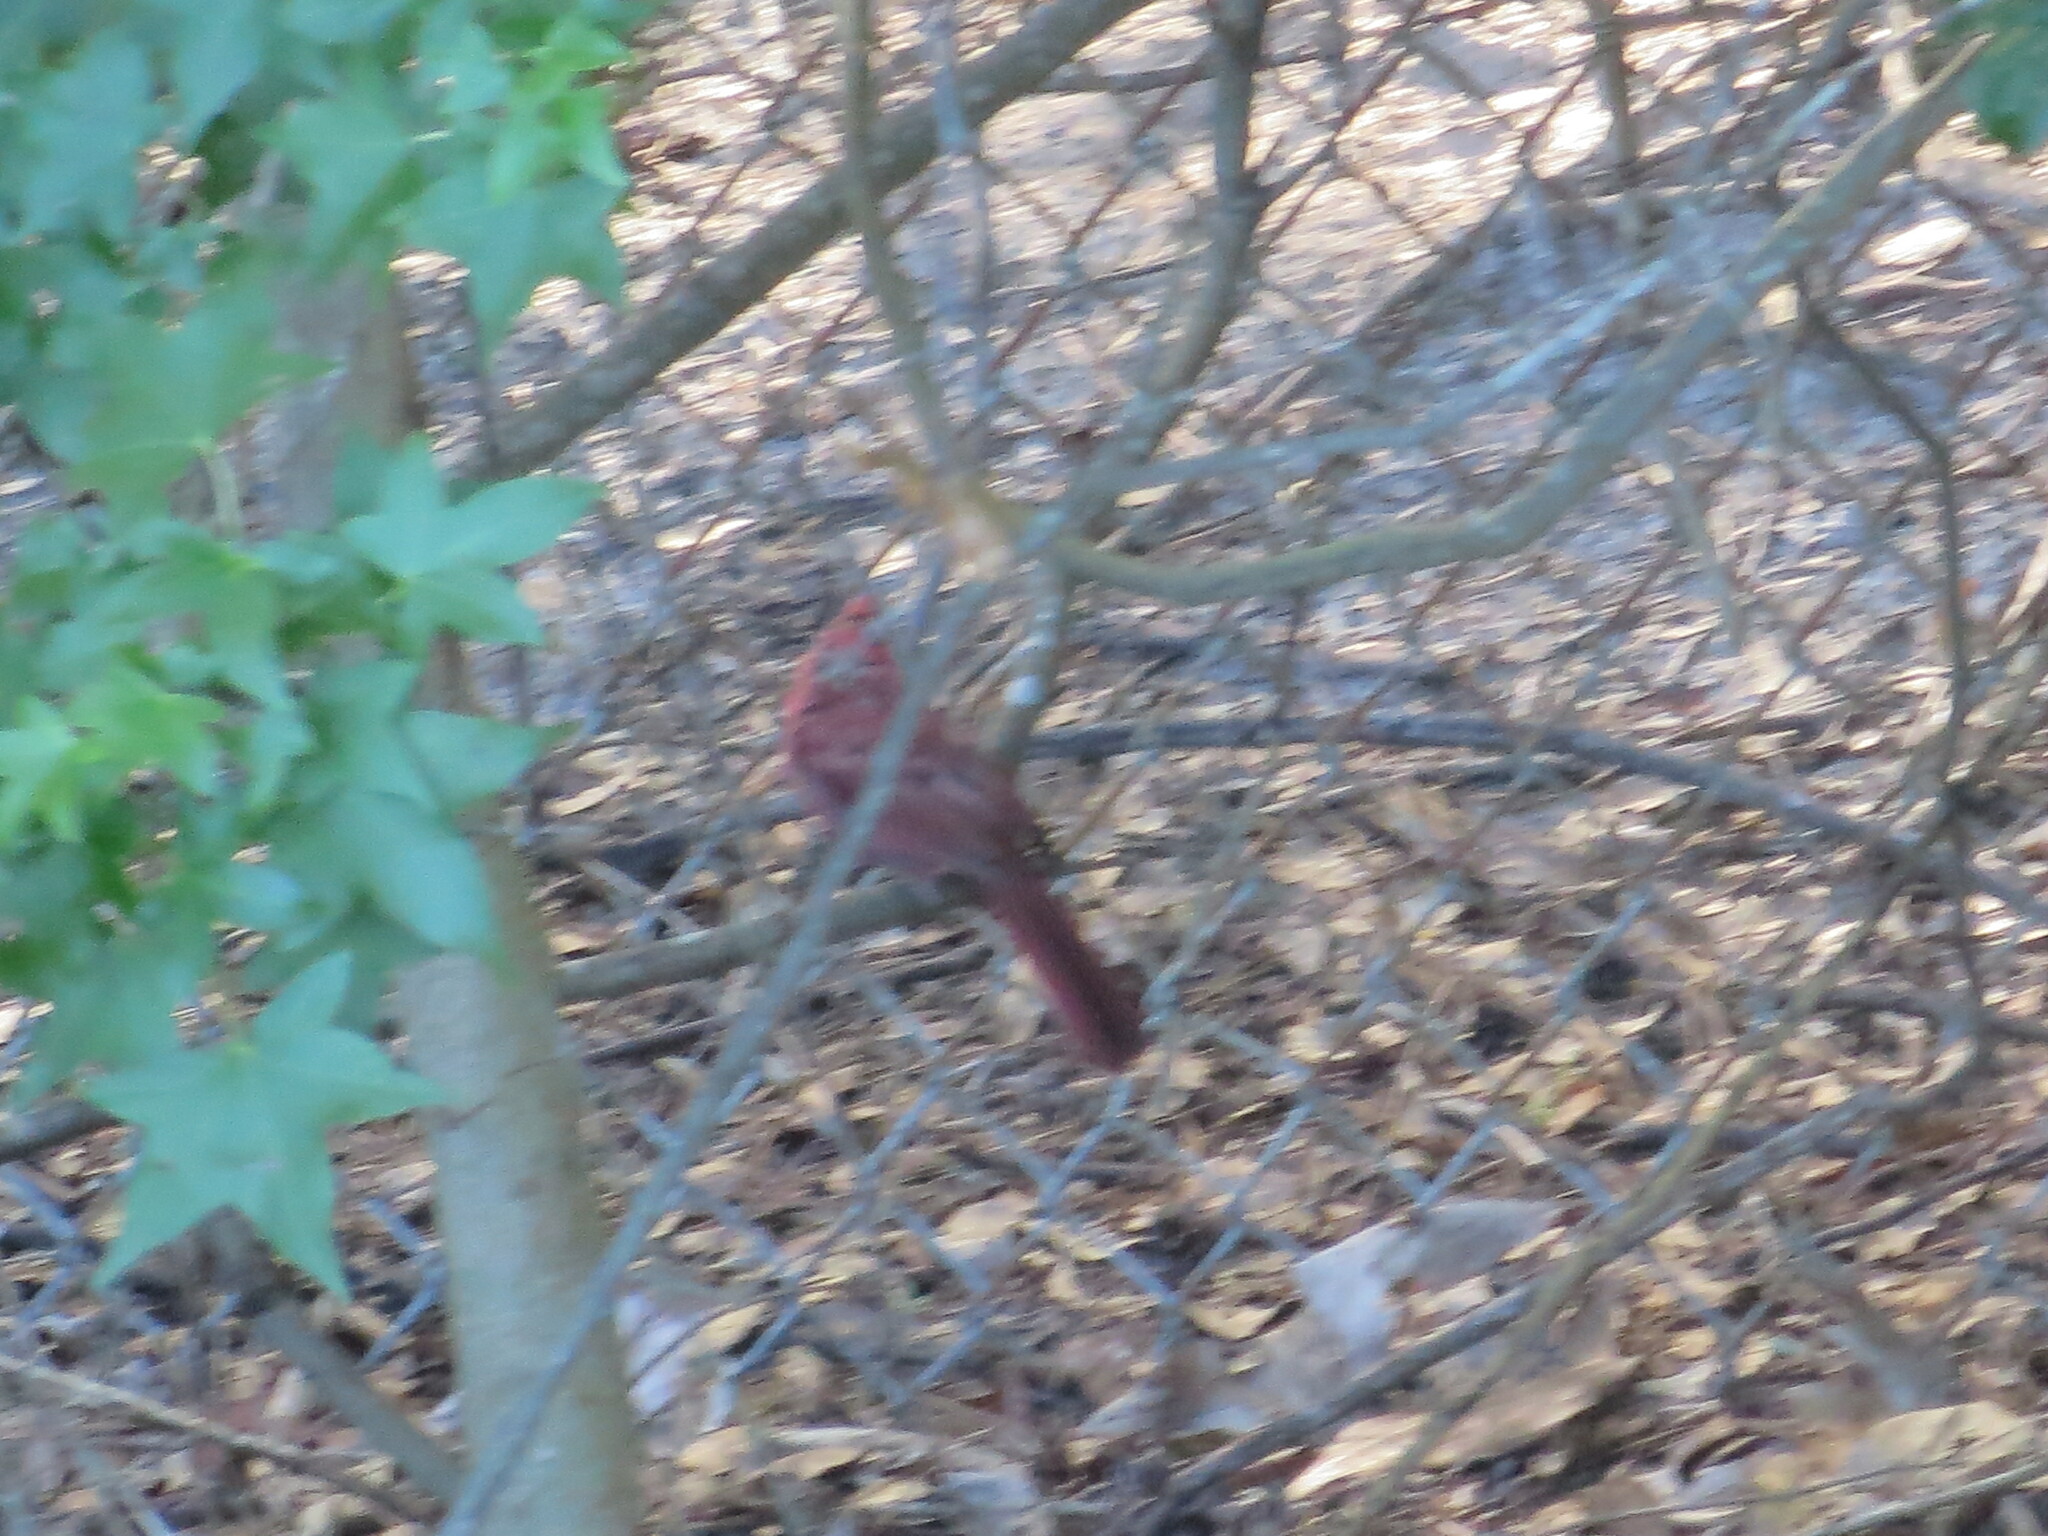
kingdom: Animalia
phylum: Chordata
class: Aves
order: Passeriformes
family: Cardinalidae
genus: Cardinalis
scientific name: Cardinalis cardinalis
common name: Northern cardinal
